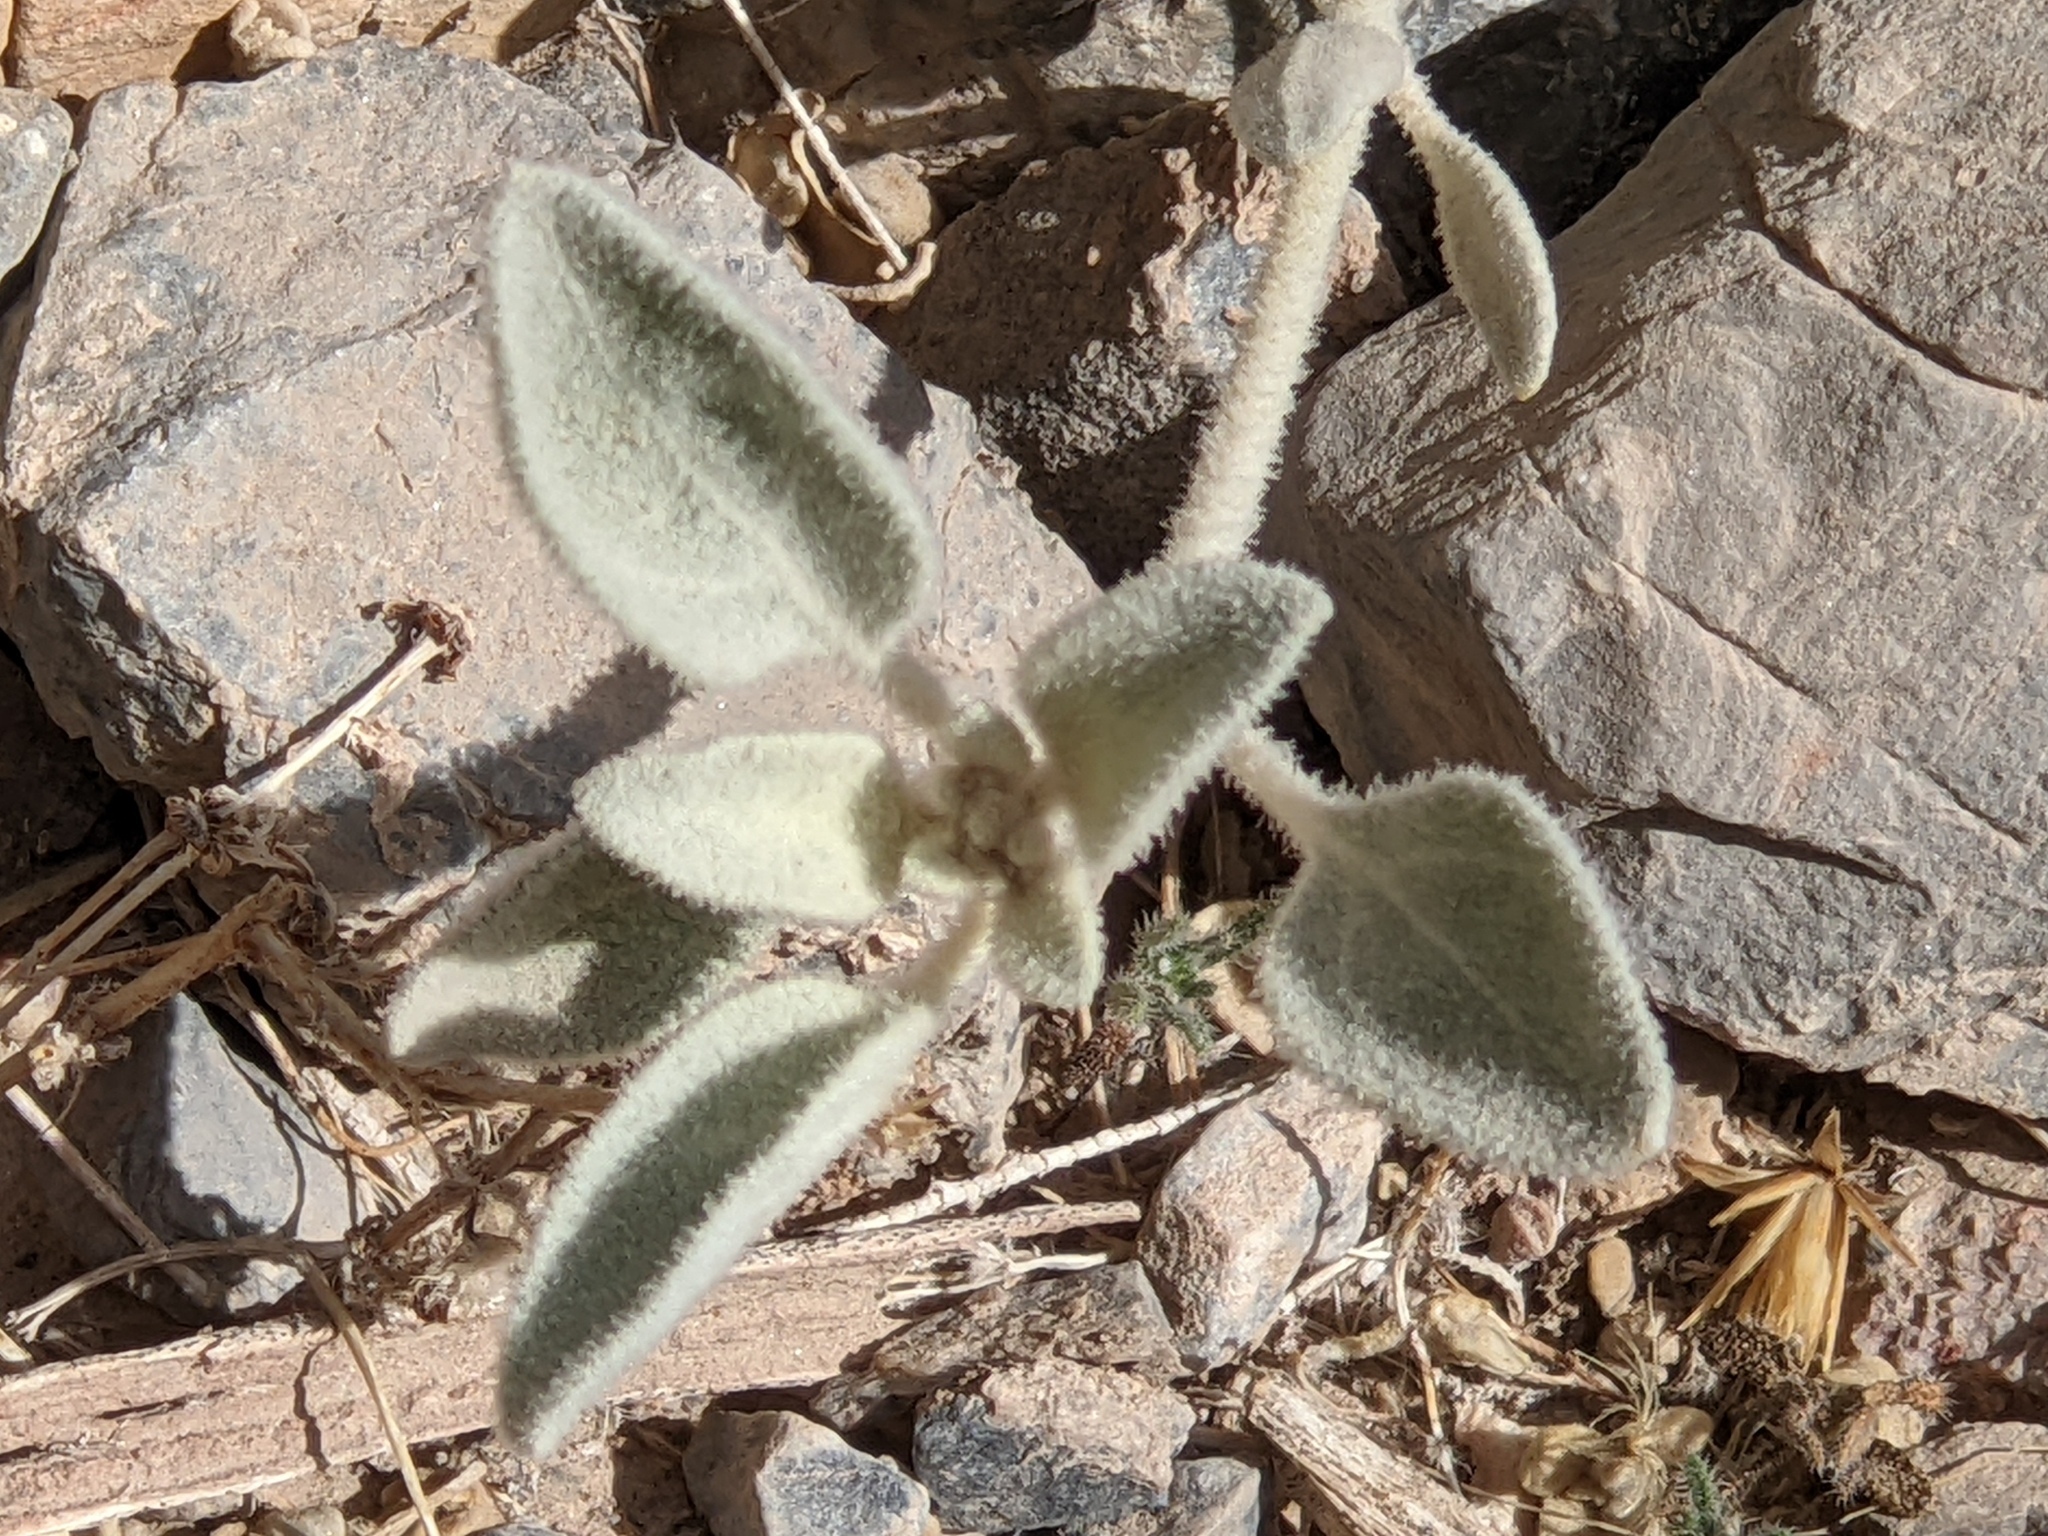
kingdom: Plantae
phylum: Tracheophyta
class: Magnoliopsida
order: Caryophyllales
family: Amaranthaceae
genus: Tidestromia
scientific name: Tidestromia suffruticosa
